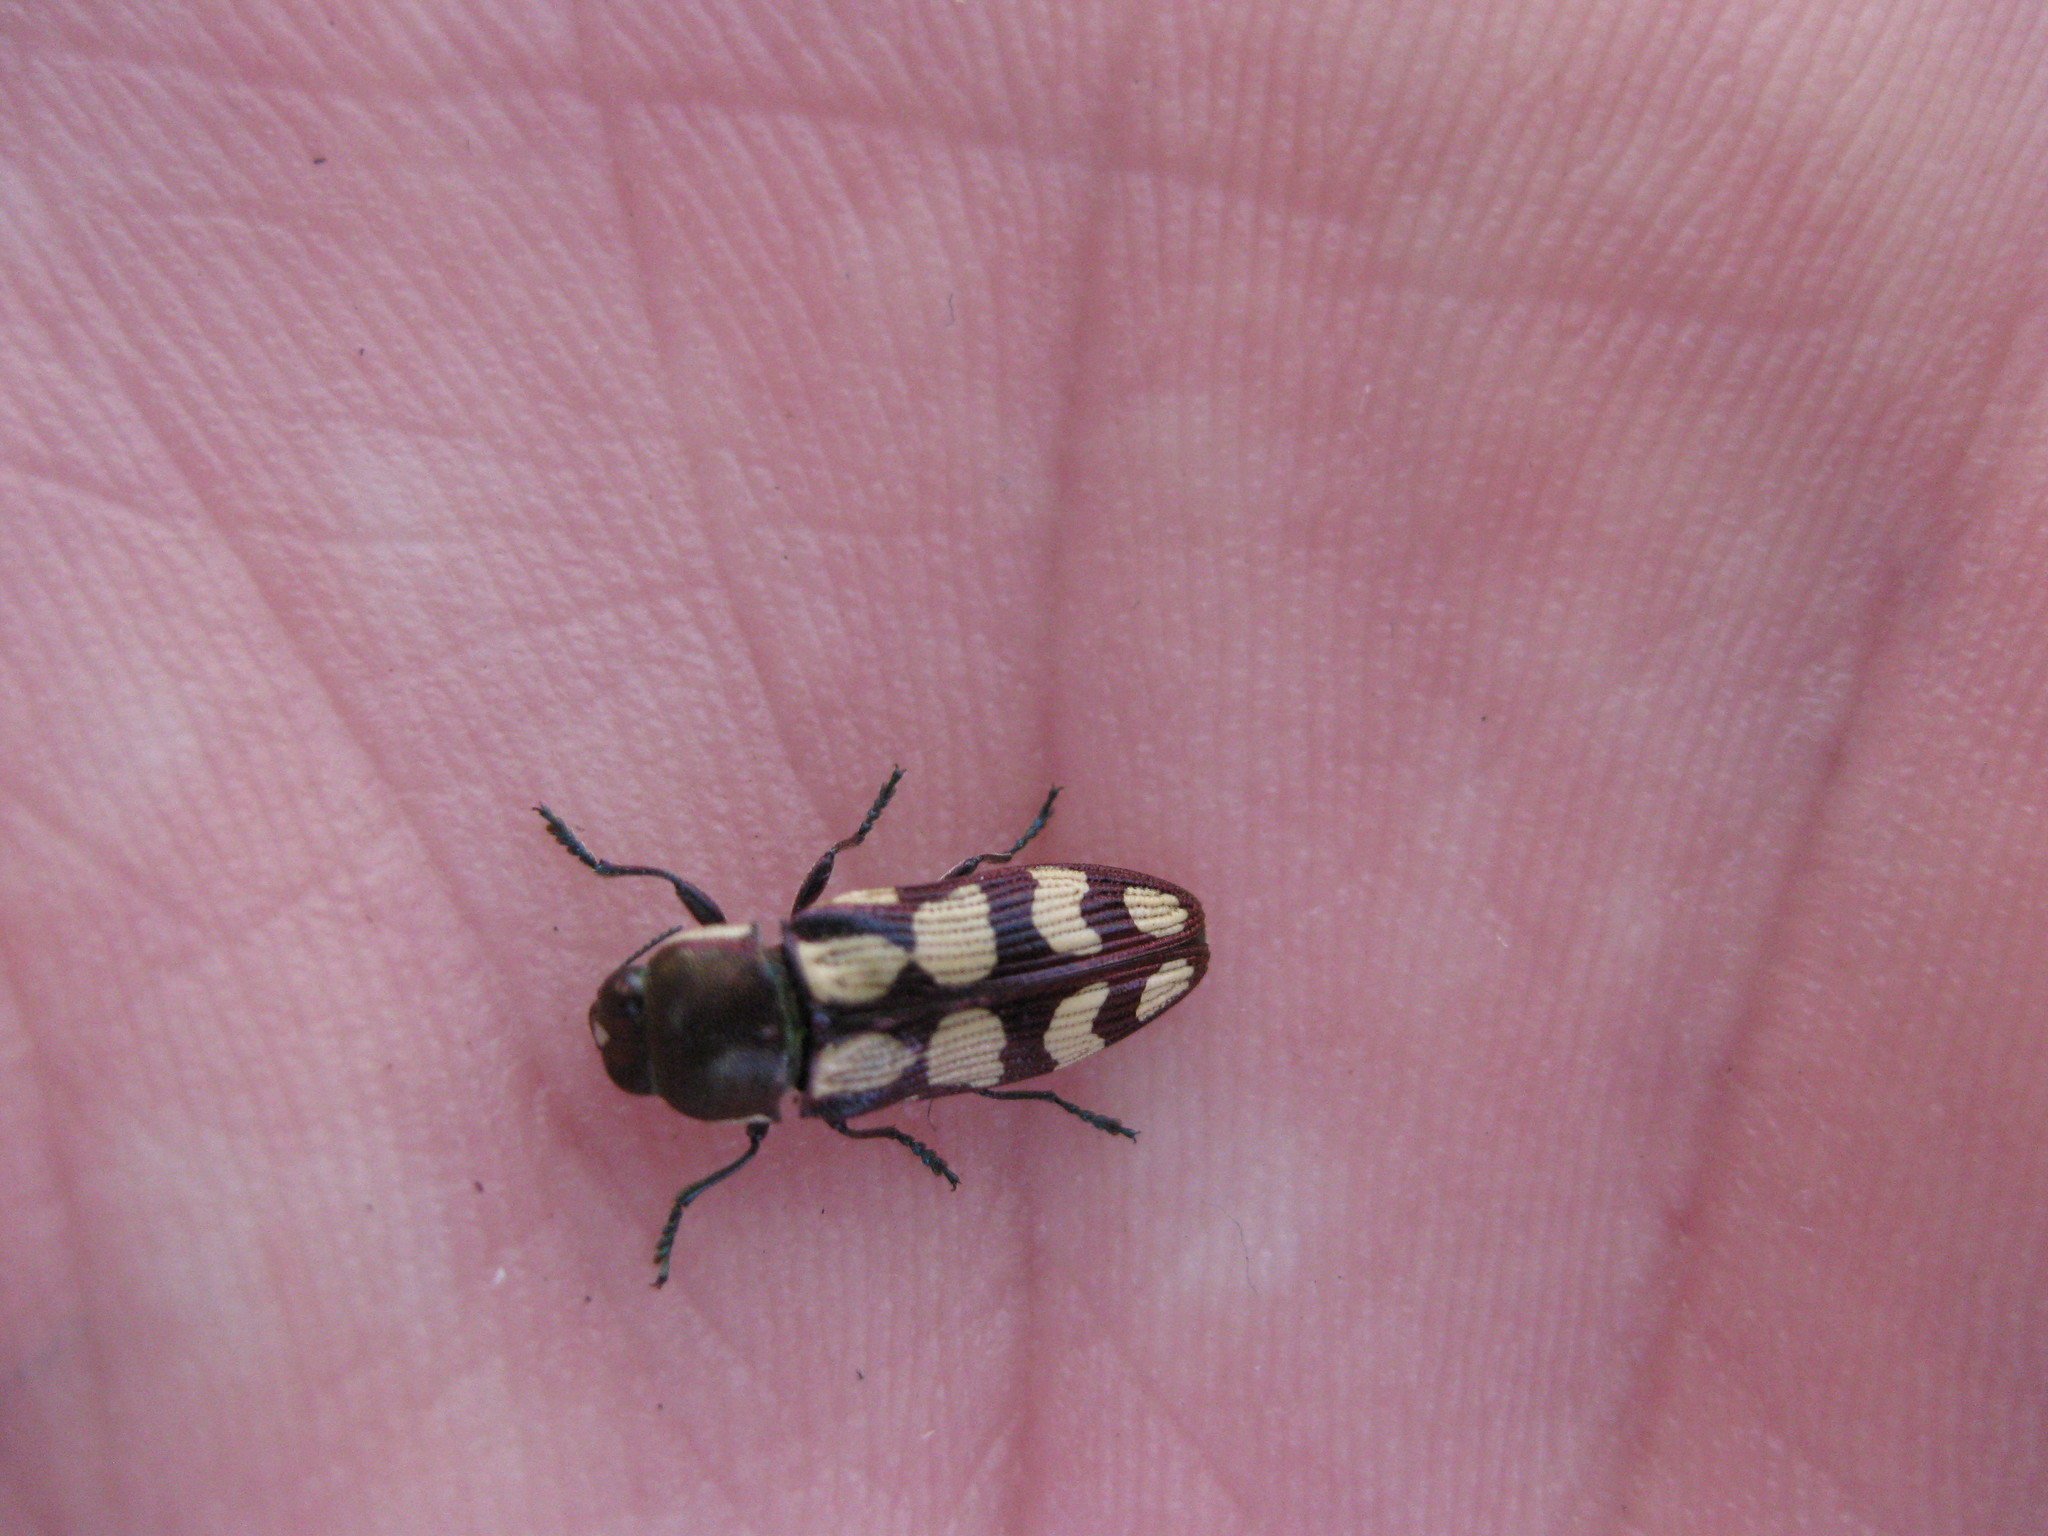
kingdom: Animalia
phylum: Arthropoda
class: Insecta
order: Coleoptera
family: Buprestidae
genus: Castiarina
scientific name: Castiarina decemmaculata
